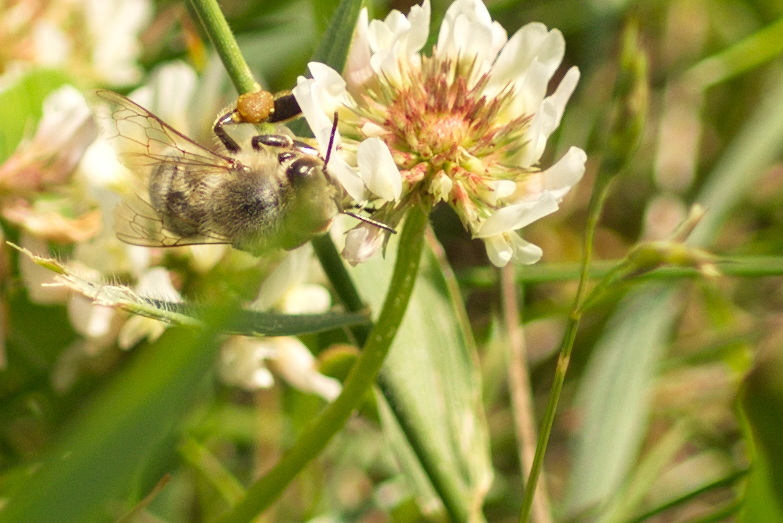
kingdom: Animalia
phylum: Arthropoda
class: Insecta
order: Hymenoptera
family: Apidae
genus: Apis
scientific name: Apis mellifera
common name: Honey bee
